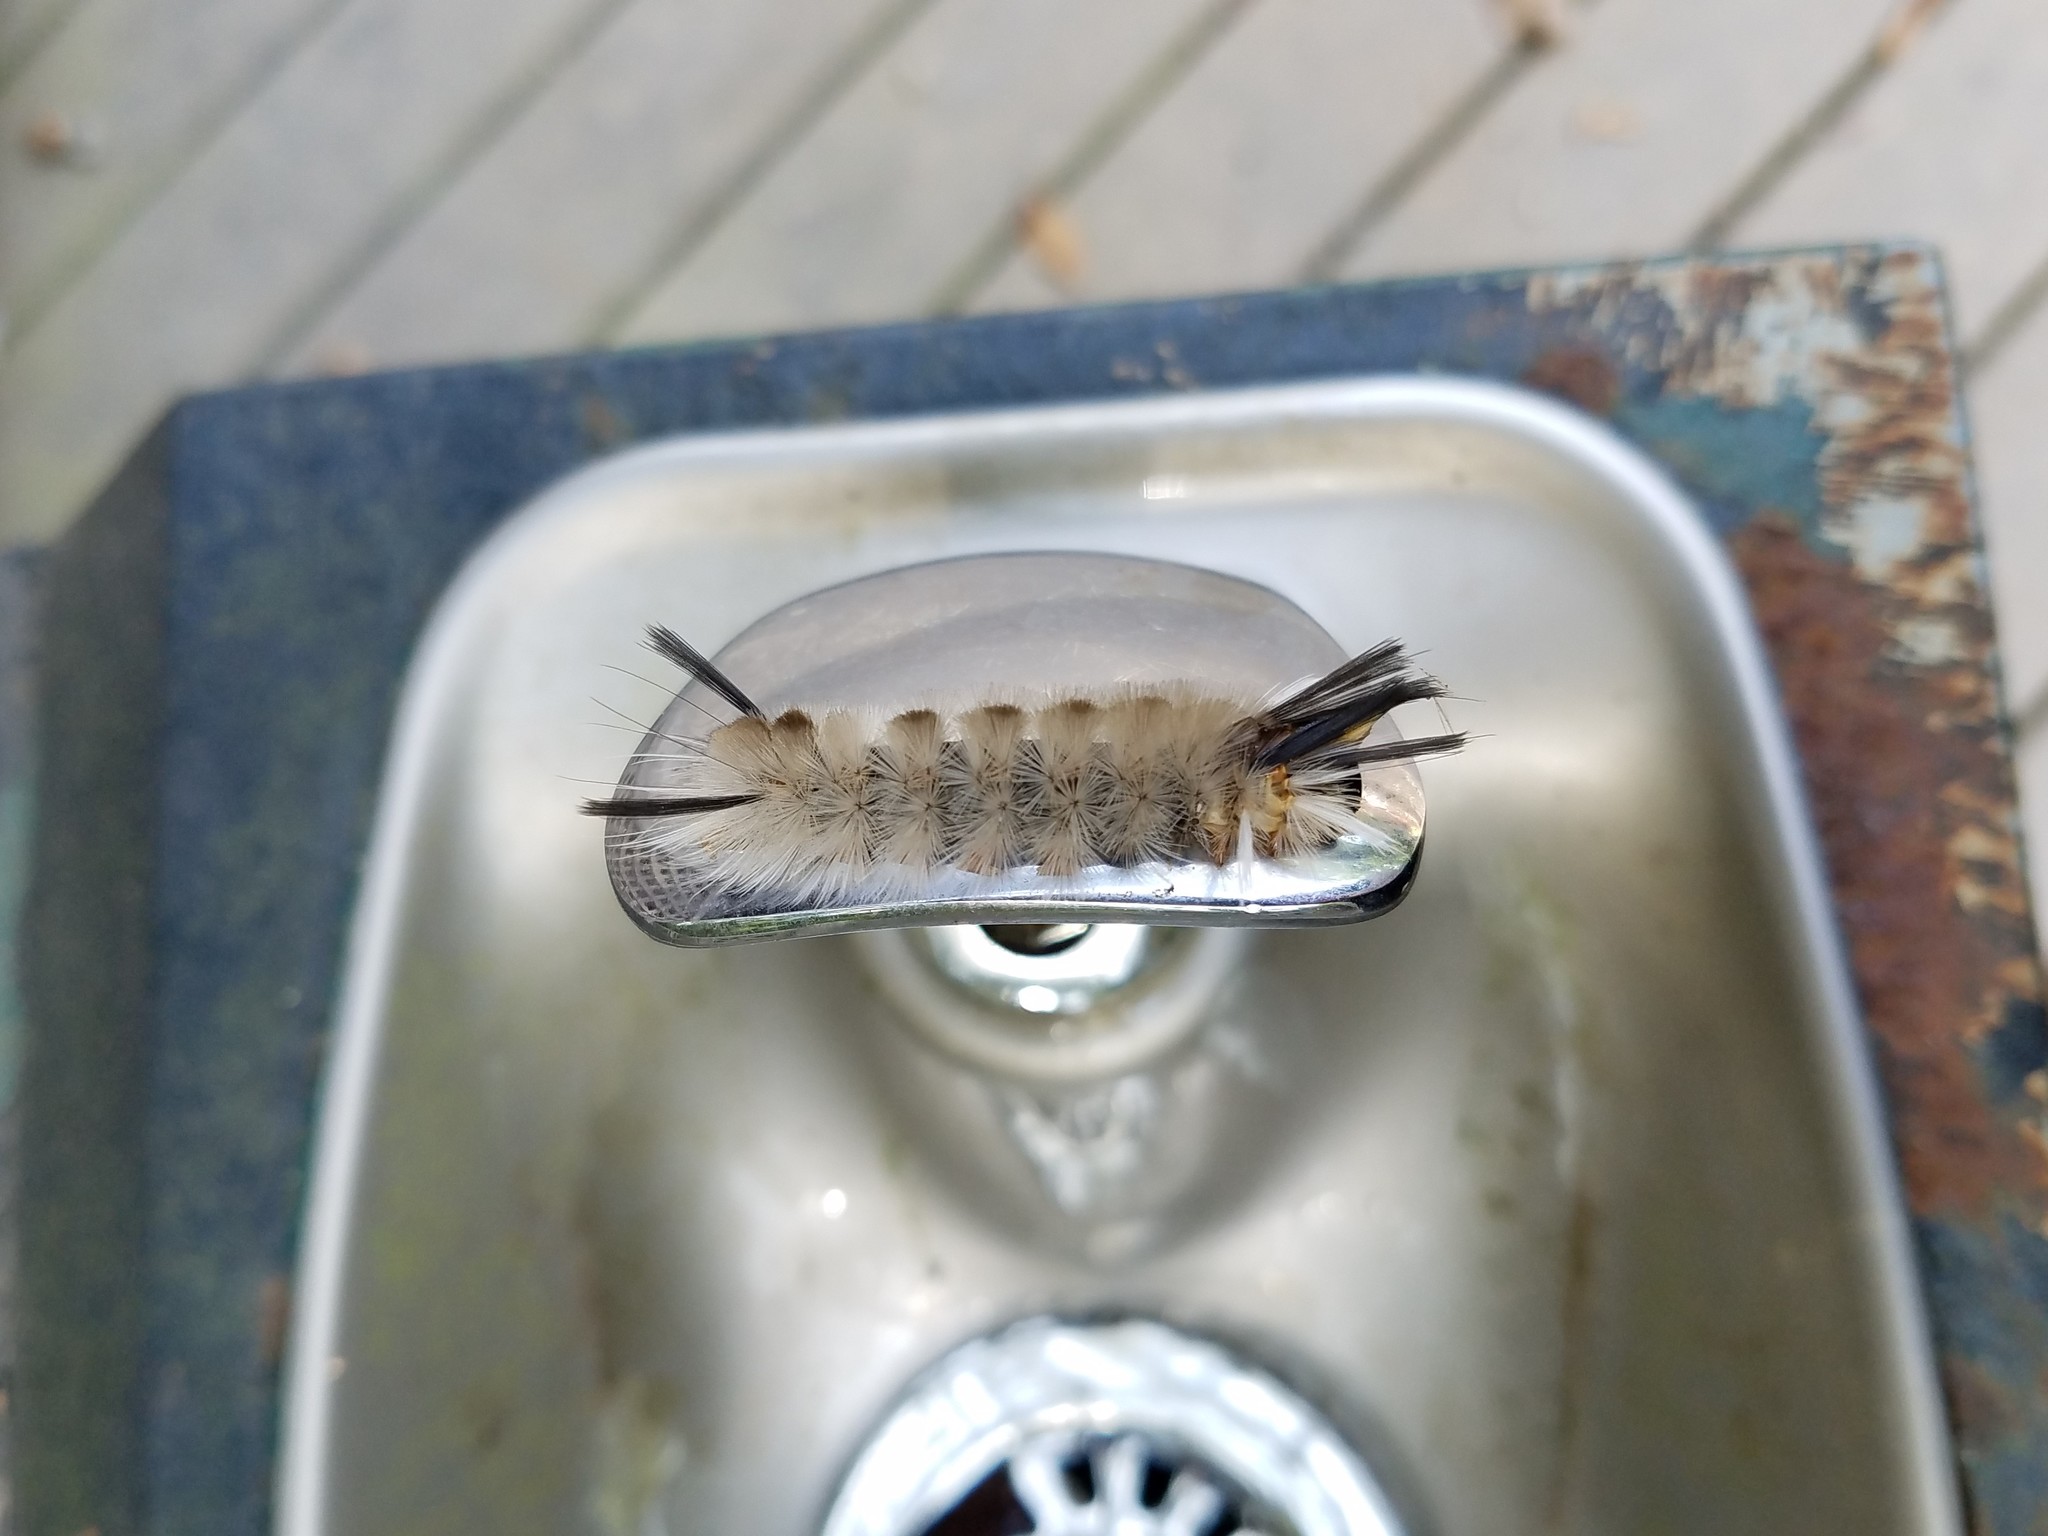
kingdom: Animalia
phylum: Arthropoda
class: Insecta
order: Lepidoptera
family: Erebidae
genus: Halysidota
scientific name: Halysidota tessellaris
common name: Banded tussock moth
